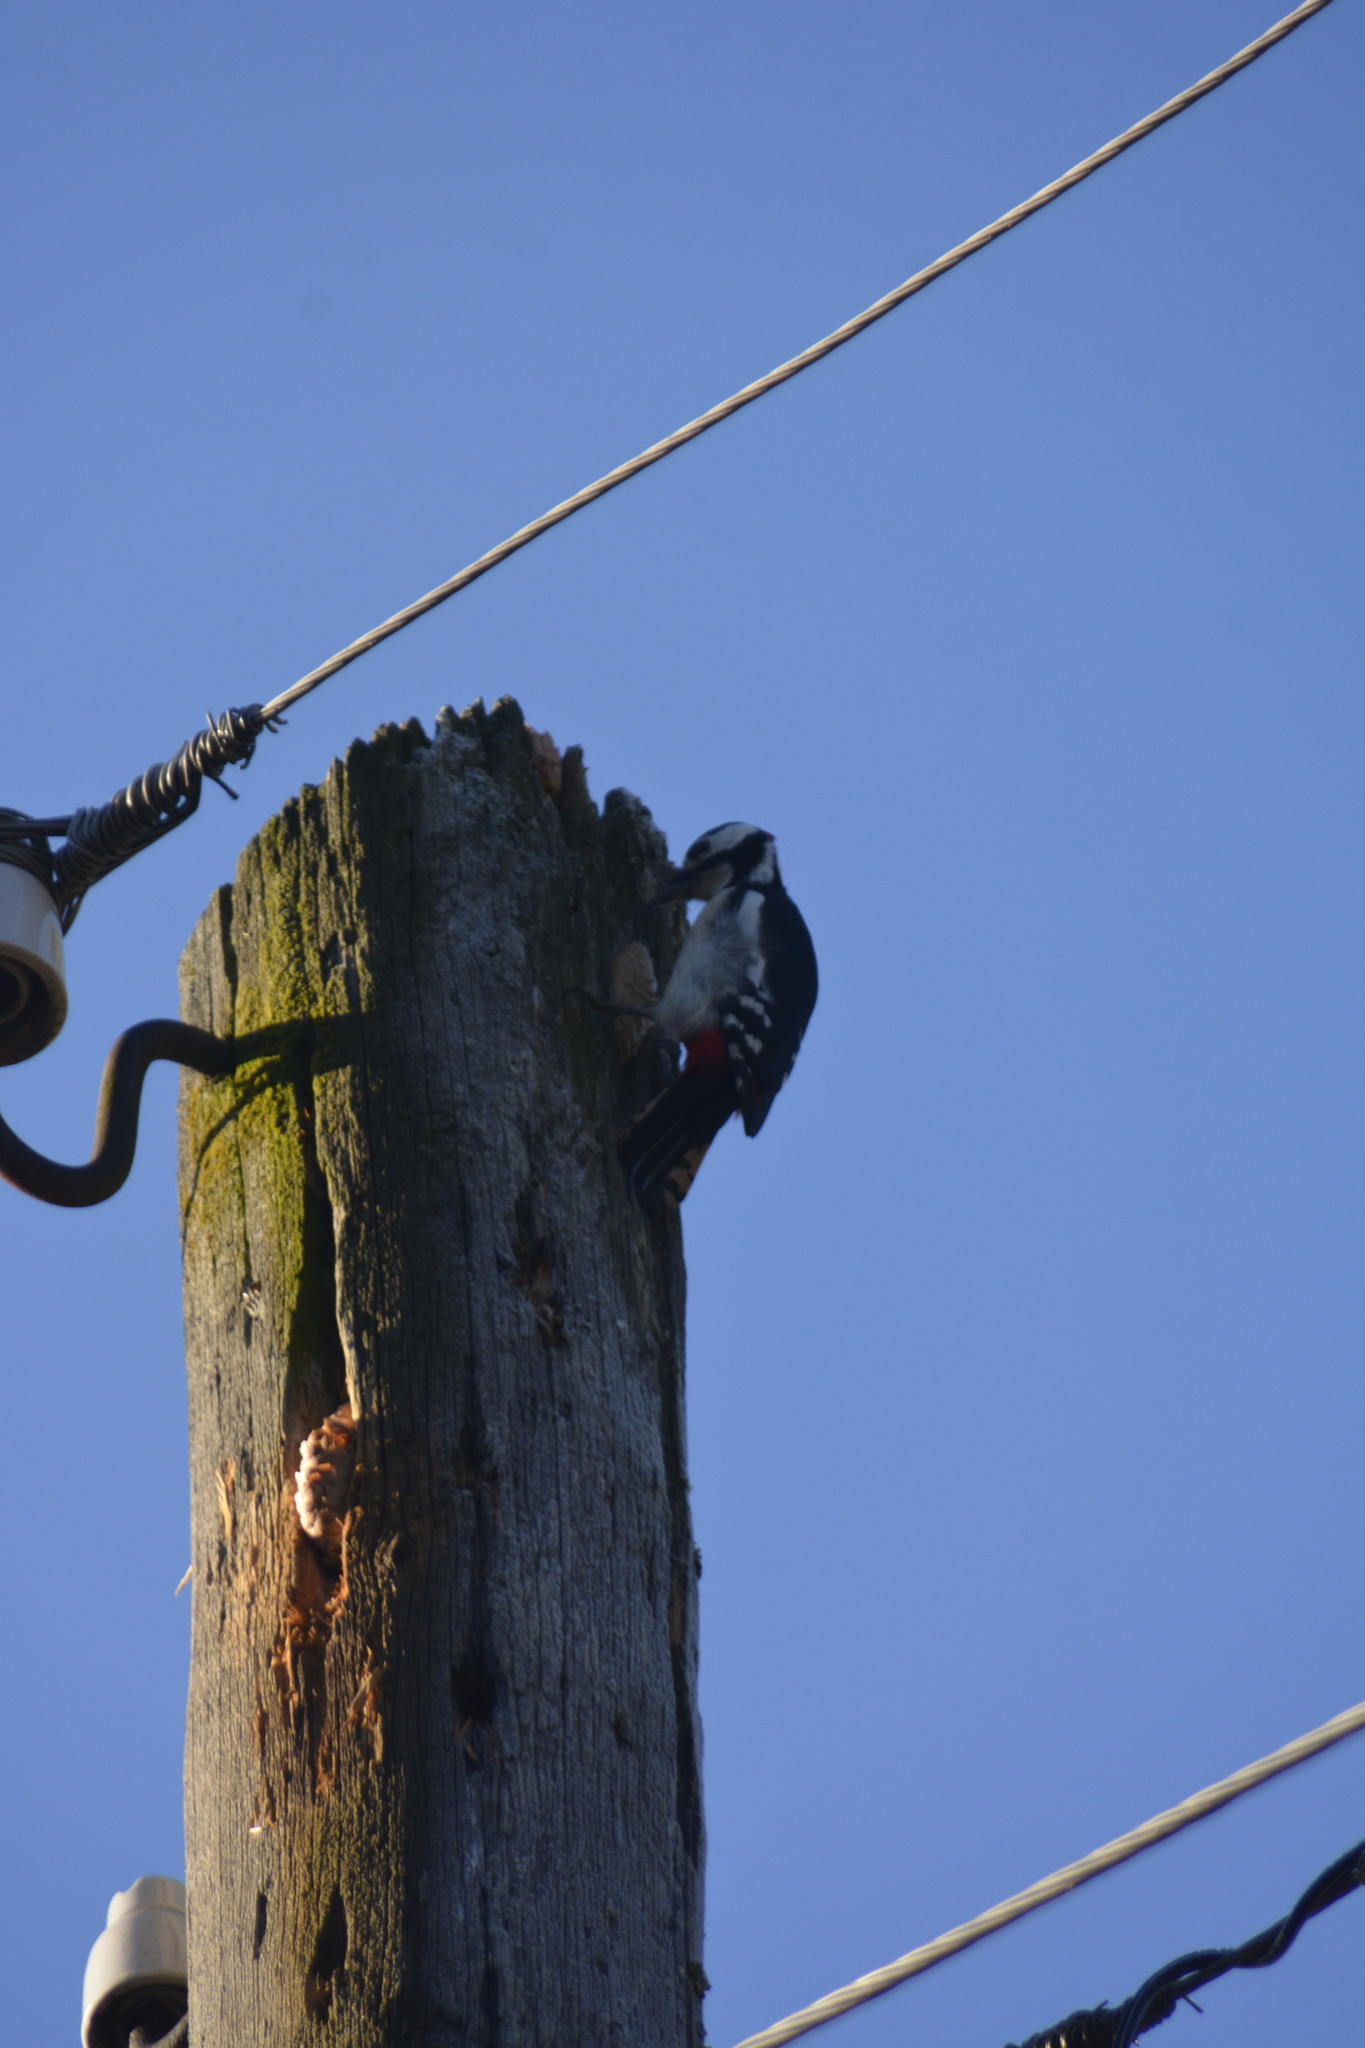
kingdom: Animalia
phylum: Chordata
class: Aves
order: Piciformes
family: Picidae
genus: Dendrocopos
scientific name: Dendrocopos major
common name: Great spotted woodpecker
